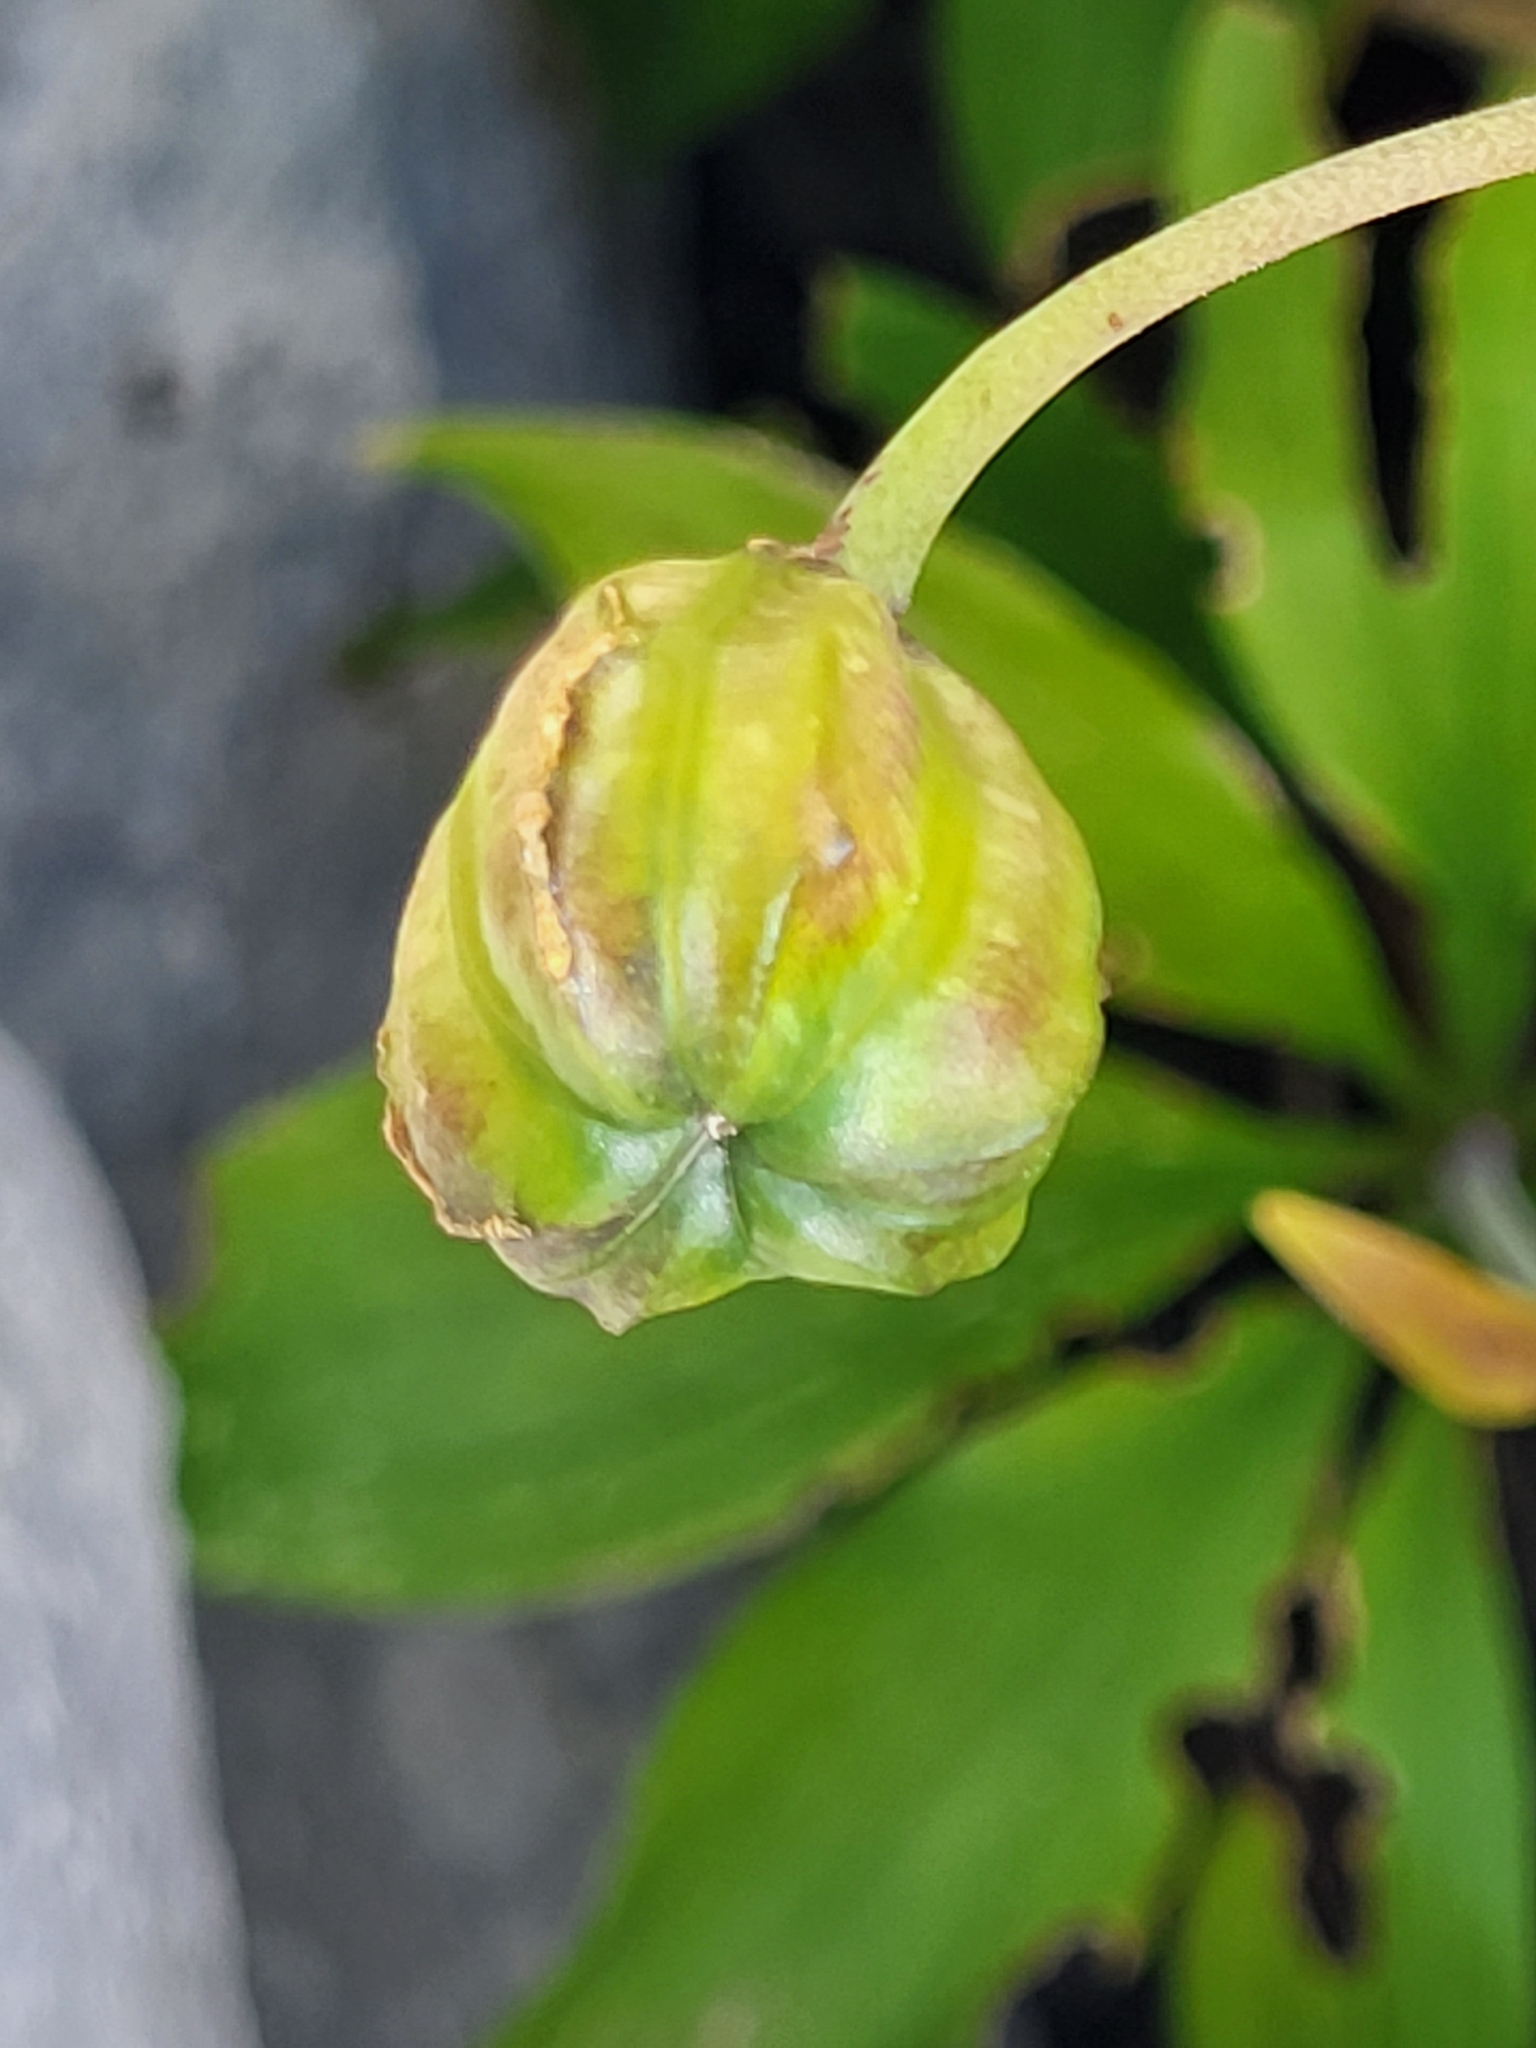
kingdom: Plantae
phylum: Tracheophyta
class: Liliopsida
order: Liliales
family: Liliaceae
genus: Lilium
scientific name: Lilium martagon
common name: Martagon lily
